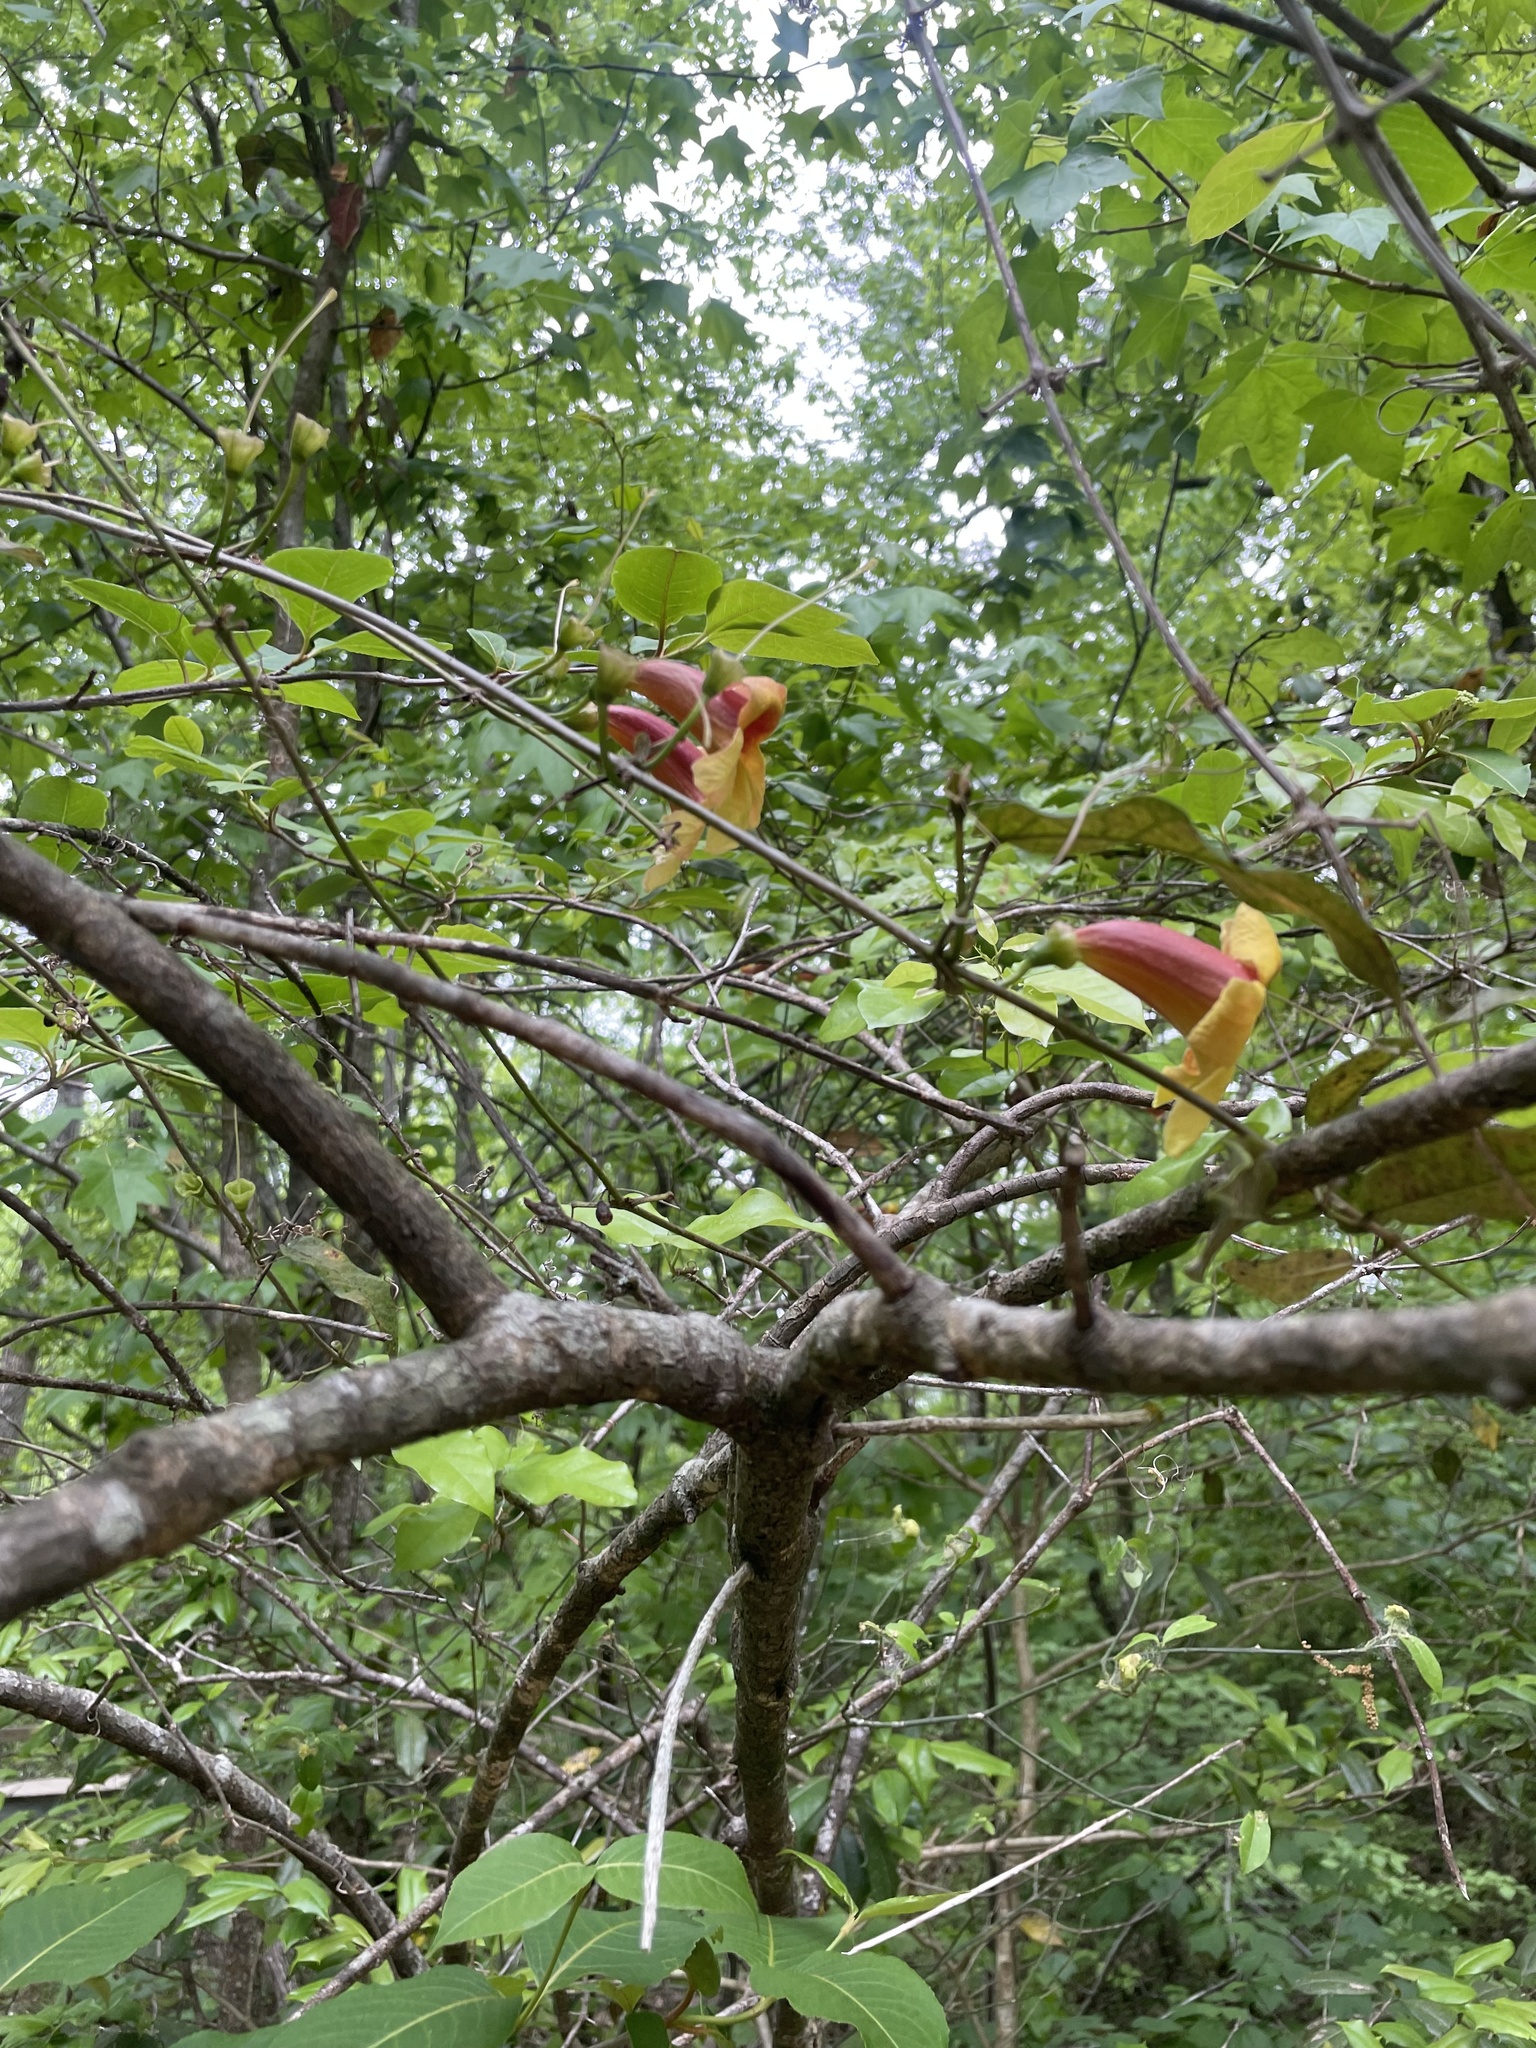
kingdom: Plantae
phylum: Tracheophyta
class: Magnoliopsida
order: Lamiales
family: Bignoniaceae
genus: Bignonia
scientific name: Bignonia capreolata
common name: Crossvine
